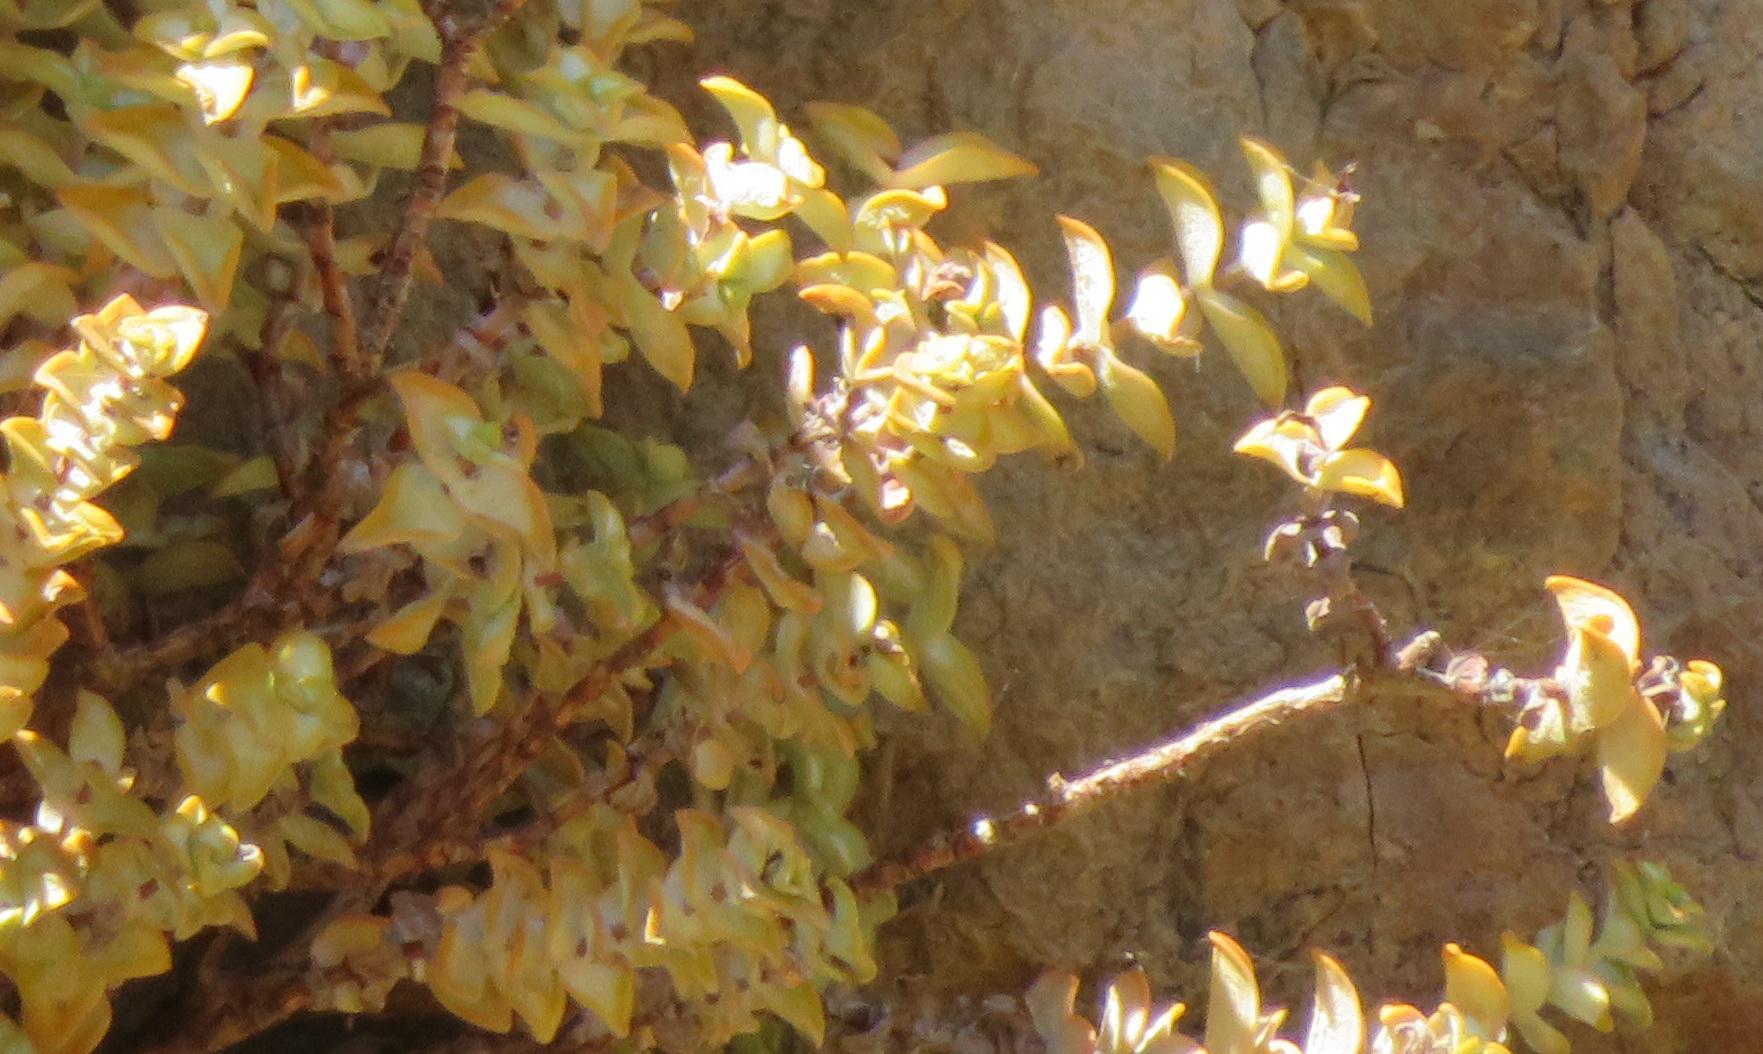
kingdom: Plantae
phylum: Tracheophyta
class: Magnoliopsida
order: Saxifragales
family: Crassulaceae
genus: Crassula
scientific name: Crassula rupestris
